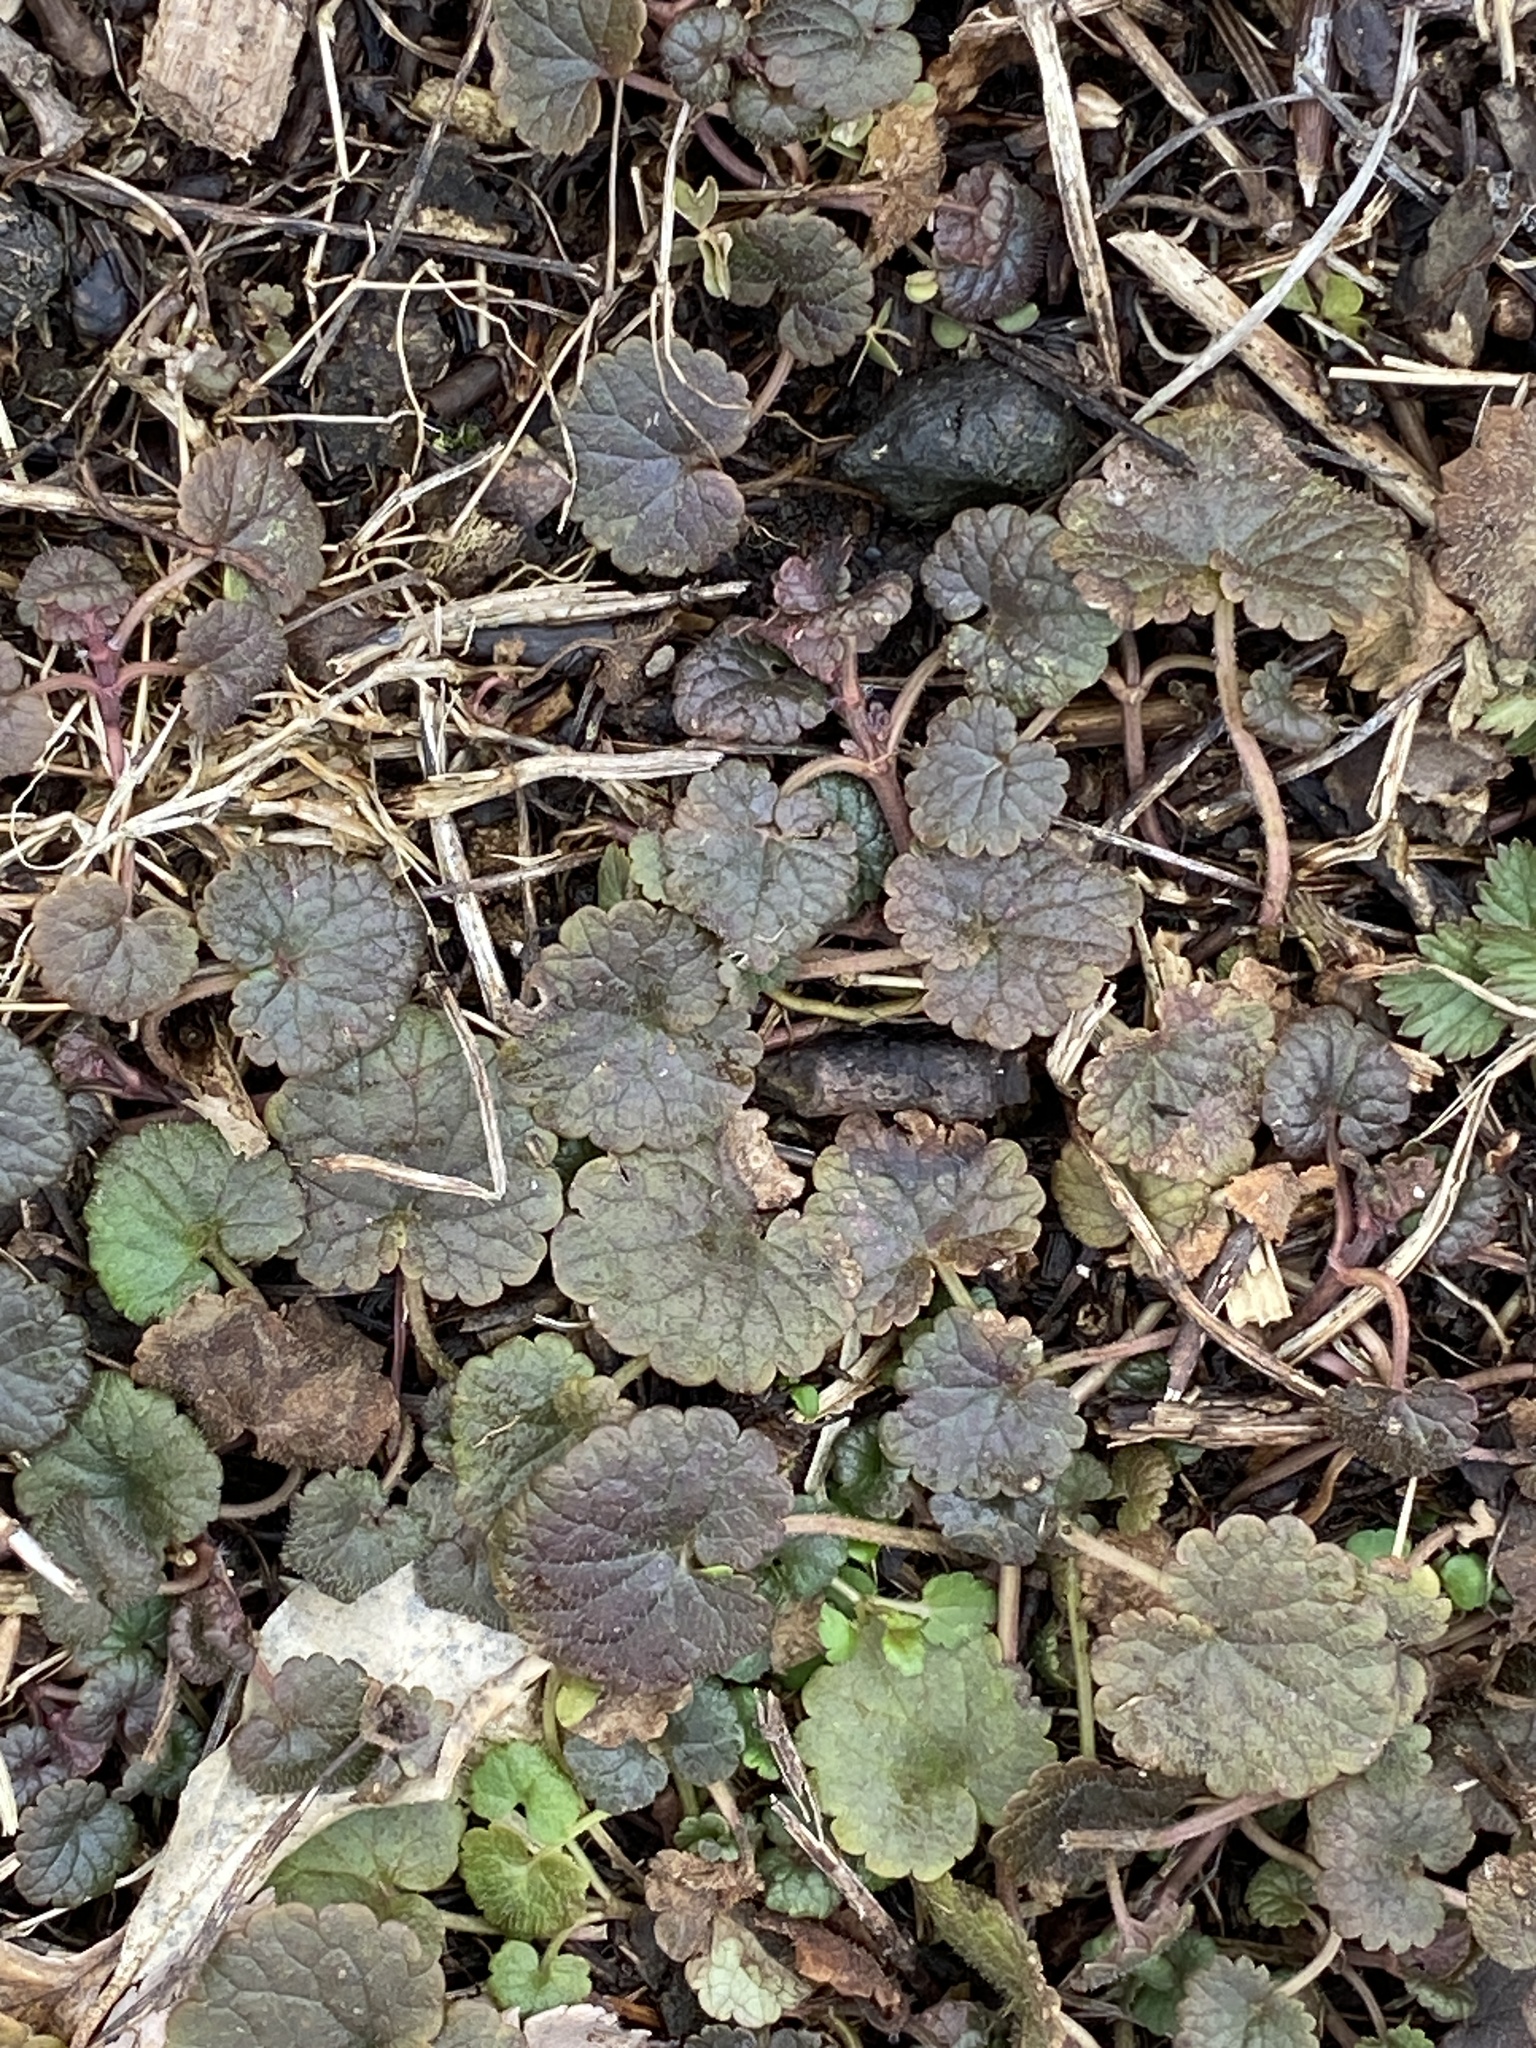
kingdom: Plantae
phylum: Tracheophyta
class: Magnoliopsida
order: Lamiales
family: Lamiaceae
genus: Glechoma
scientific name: Glechoma hederacea
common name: Ground ivy
